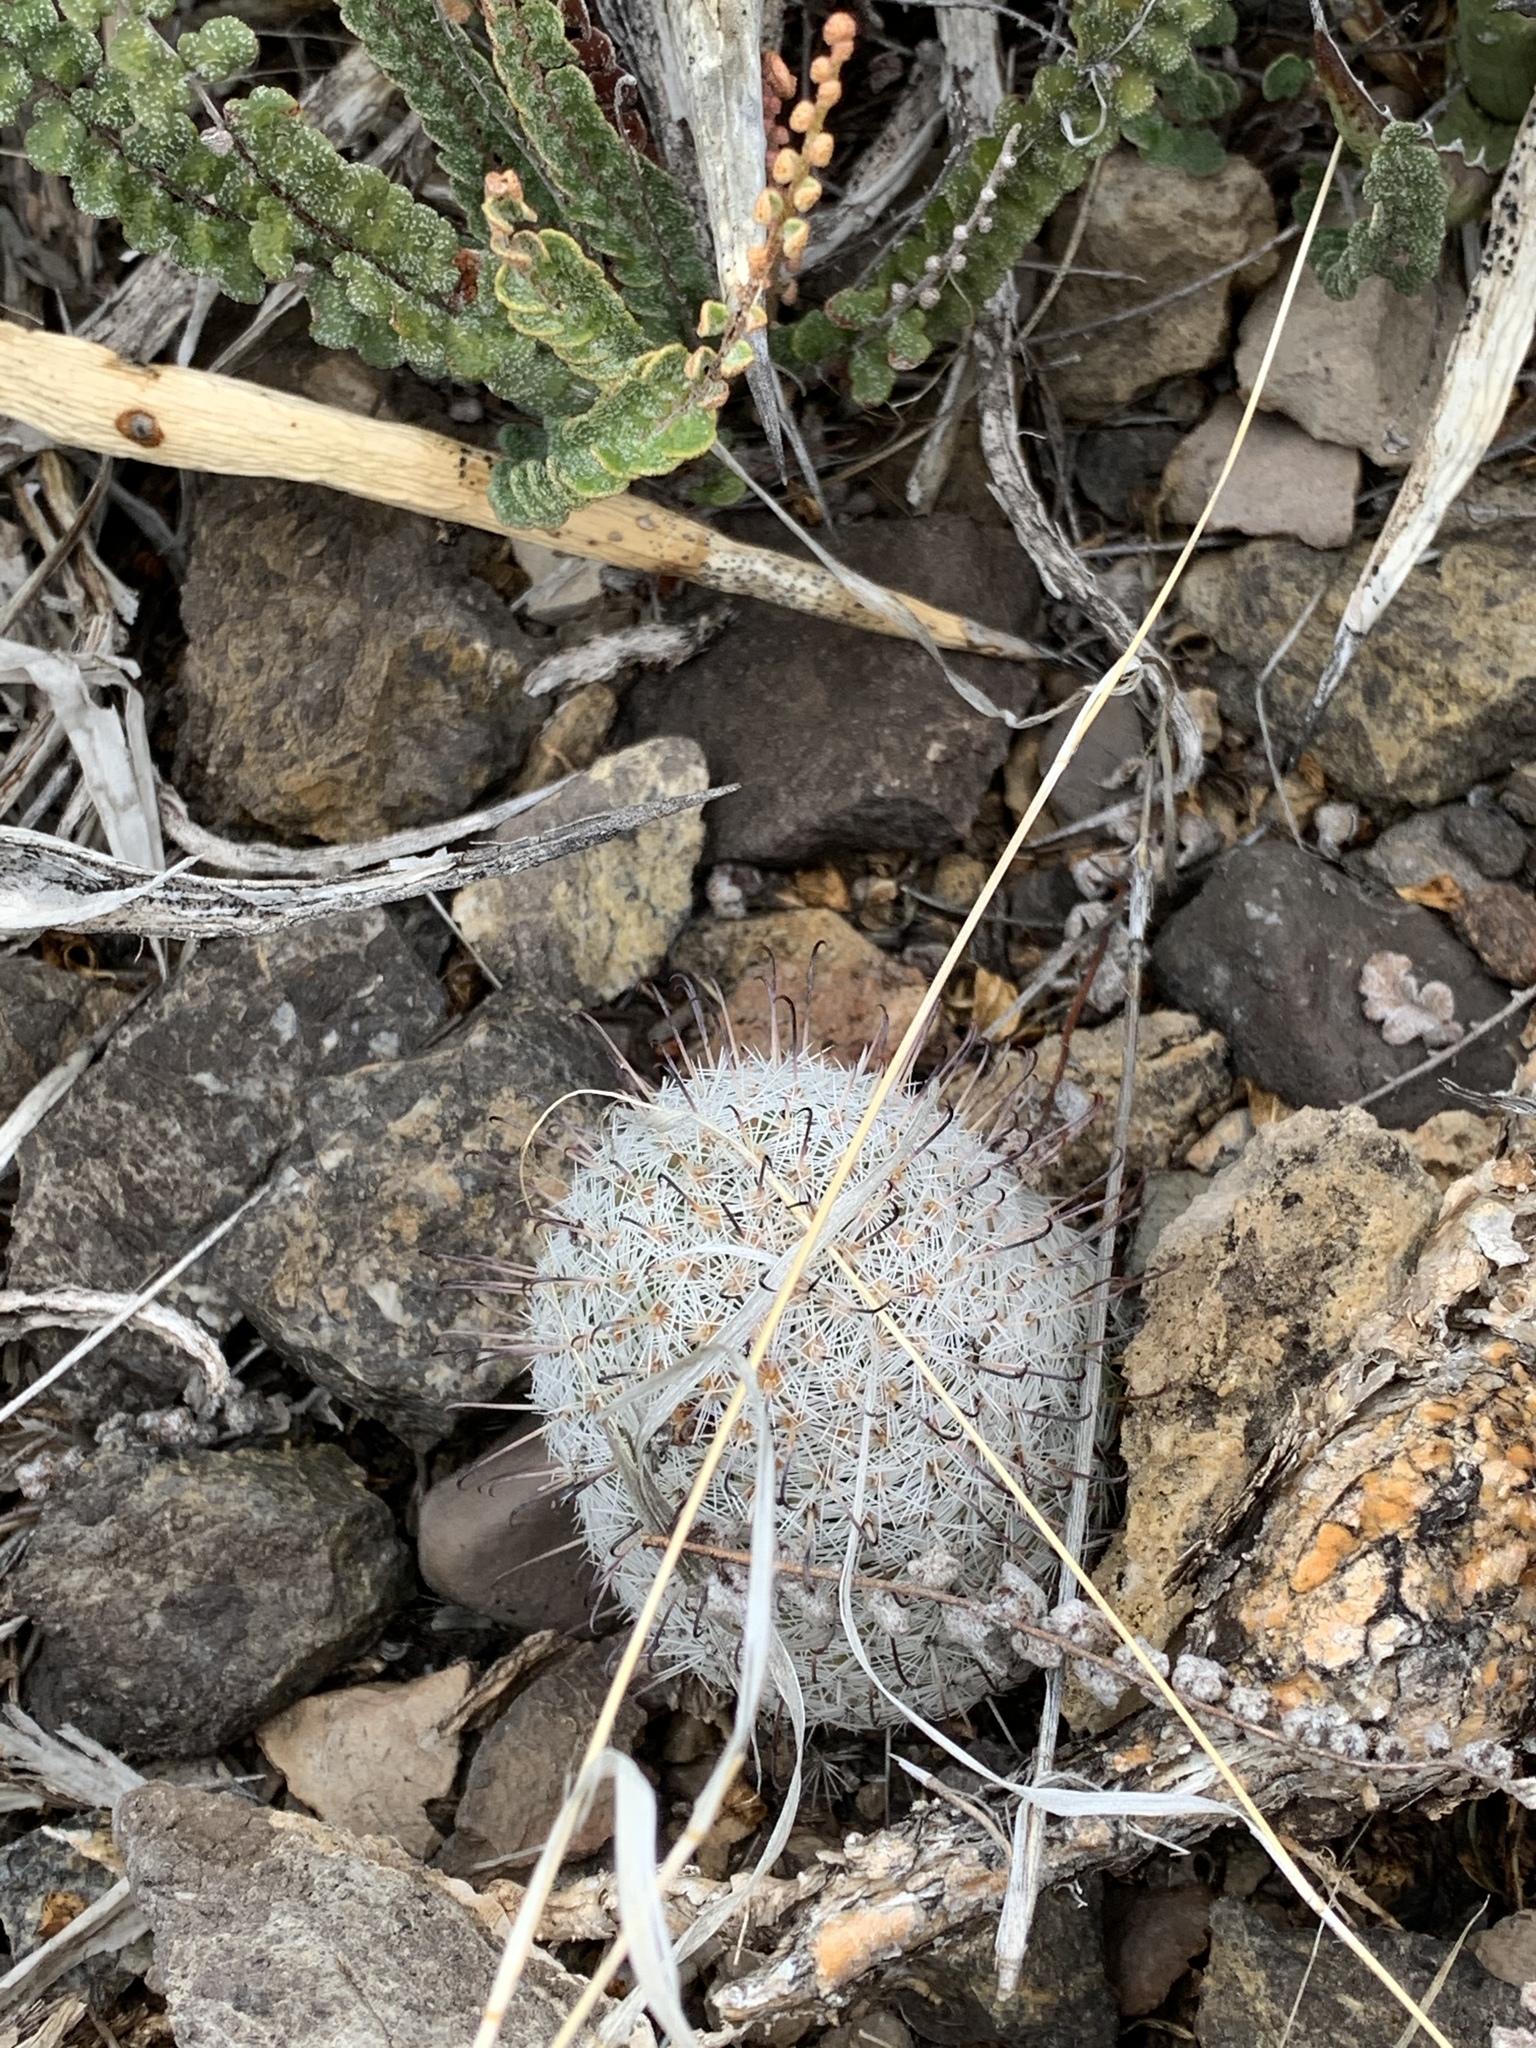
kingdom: Plantae
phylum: Tracheophyta
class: Magnoliopsida
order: Caryophyllales
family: Cactaceae
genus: Cochemiea
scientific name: Cochemiea grahamii
